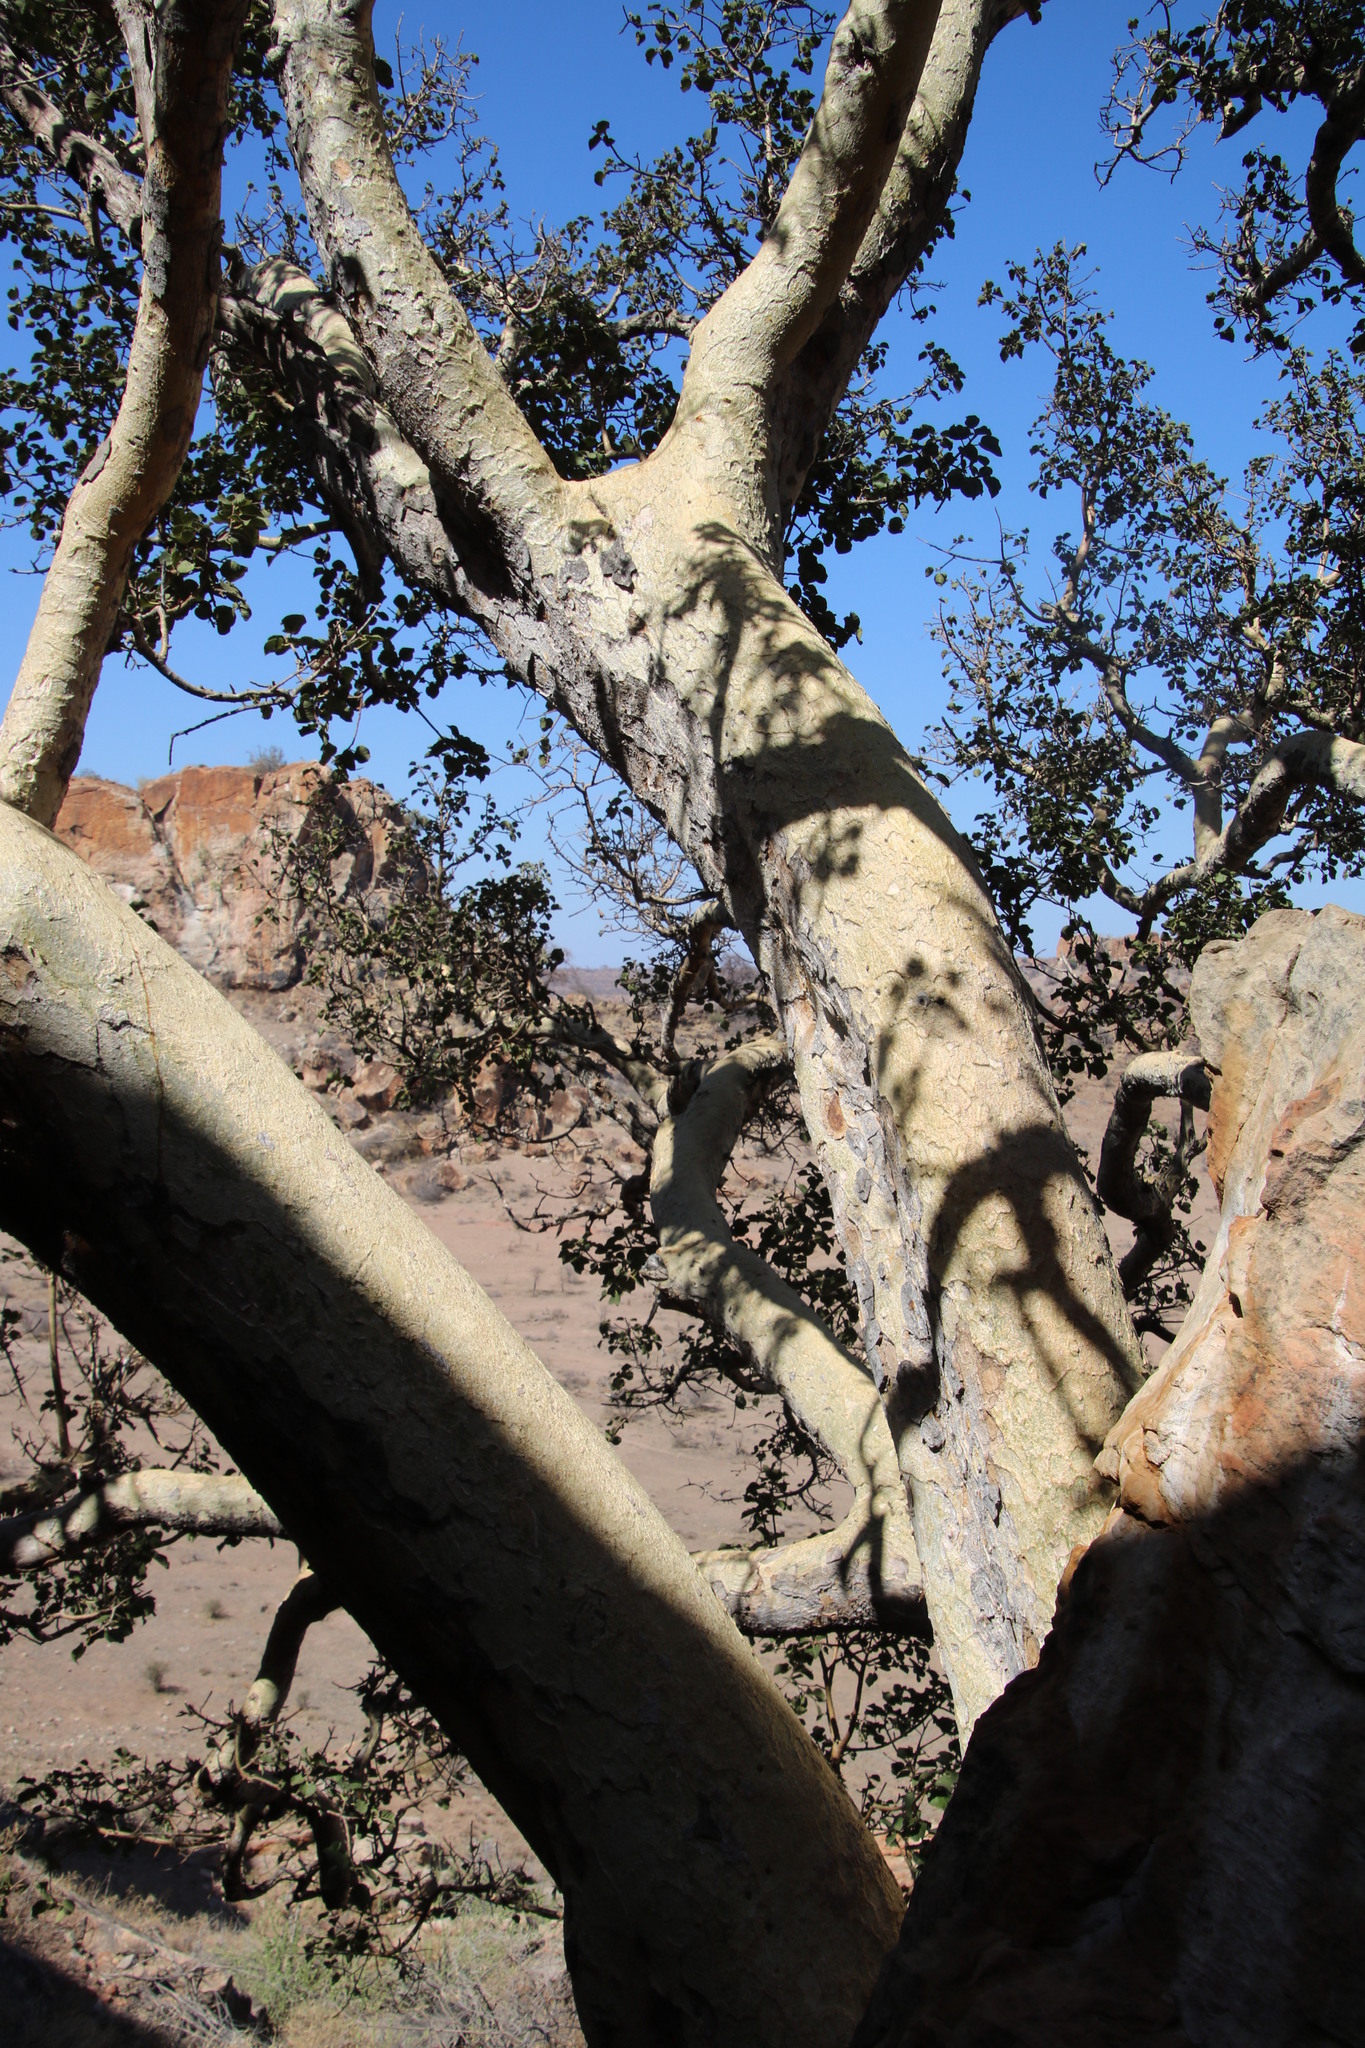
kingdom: Plantae
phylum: Tracheophyta
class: Magnoliopsida
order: Rosales
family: Moraceae
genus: Ficus
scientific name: Ficus tettensis
